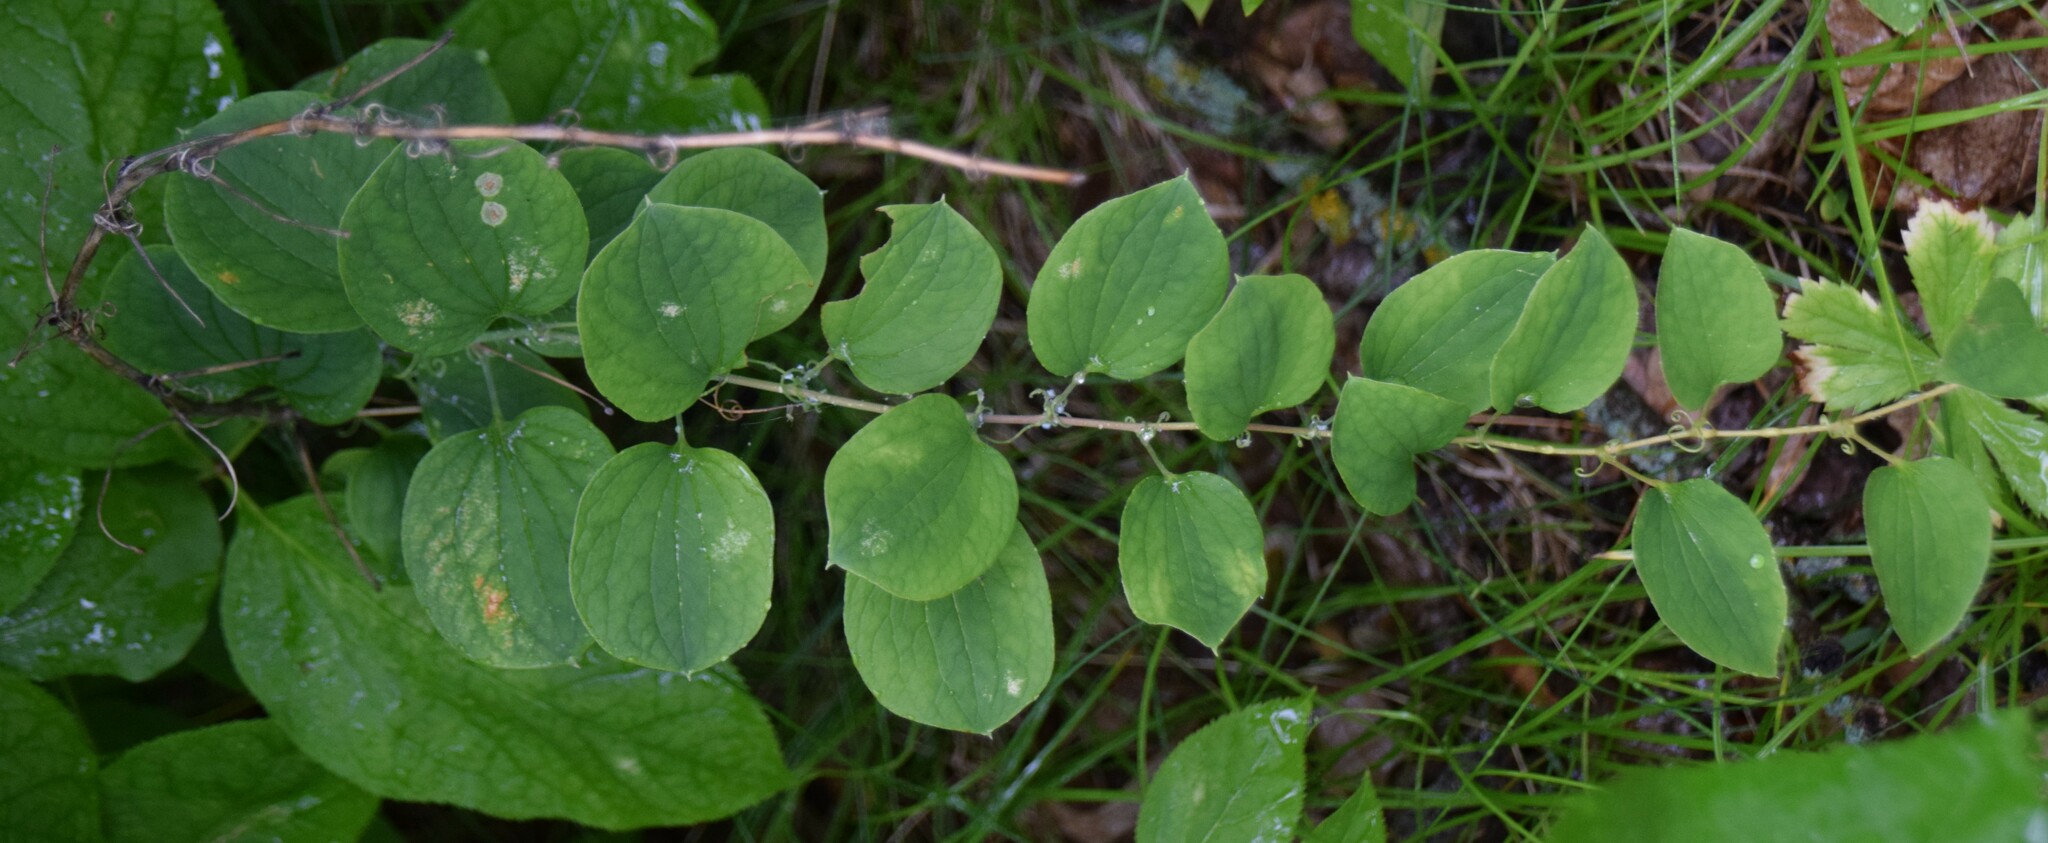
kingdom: Plantae
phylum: Tracheophyta
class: Liliopsida
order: Liliales
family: Smilacaceae
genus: Smilax
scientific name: Smilax lasioneura
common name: Blue ridge carrionflower
